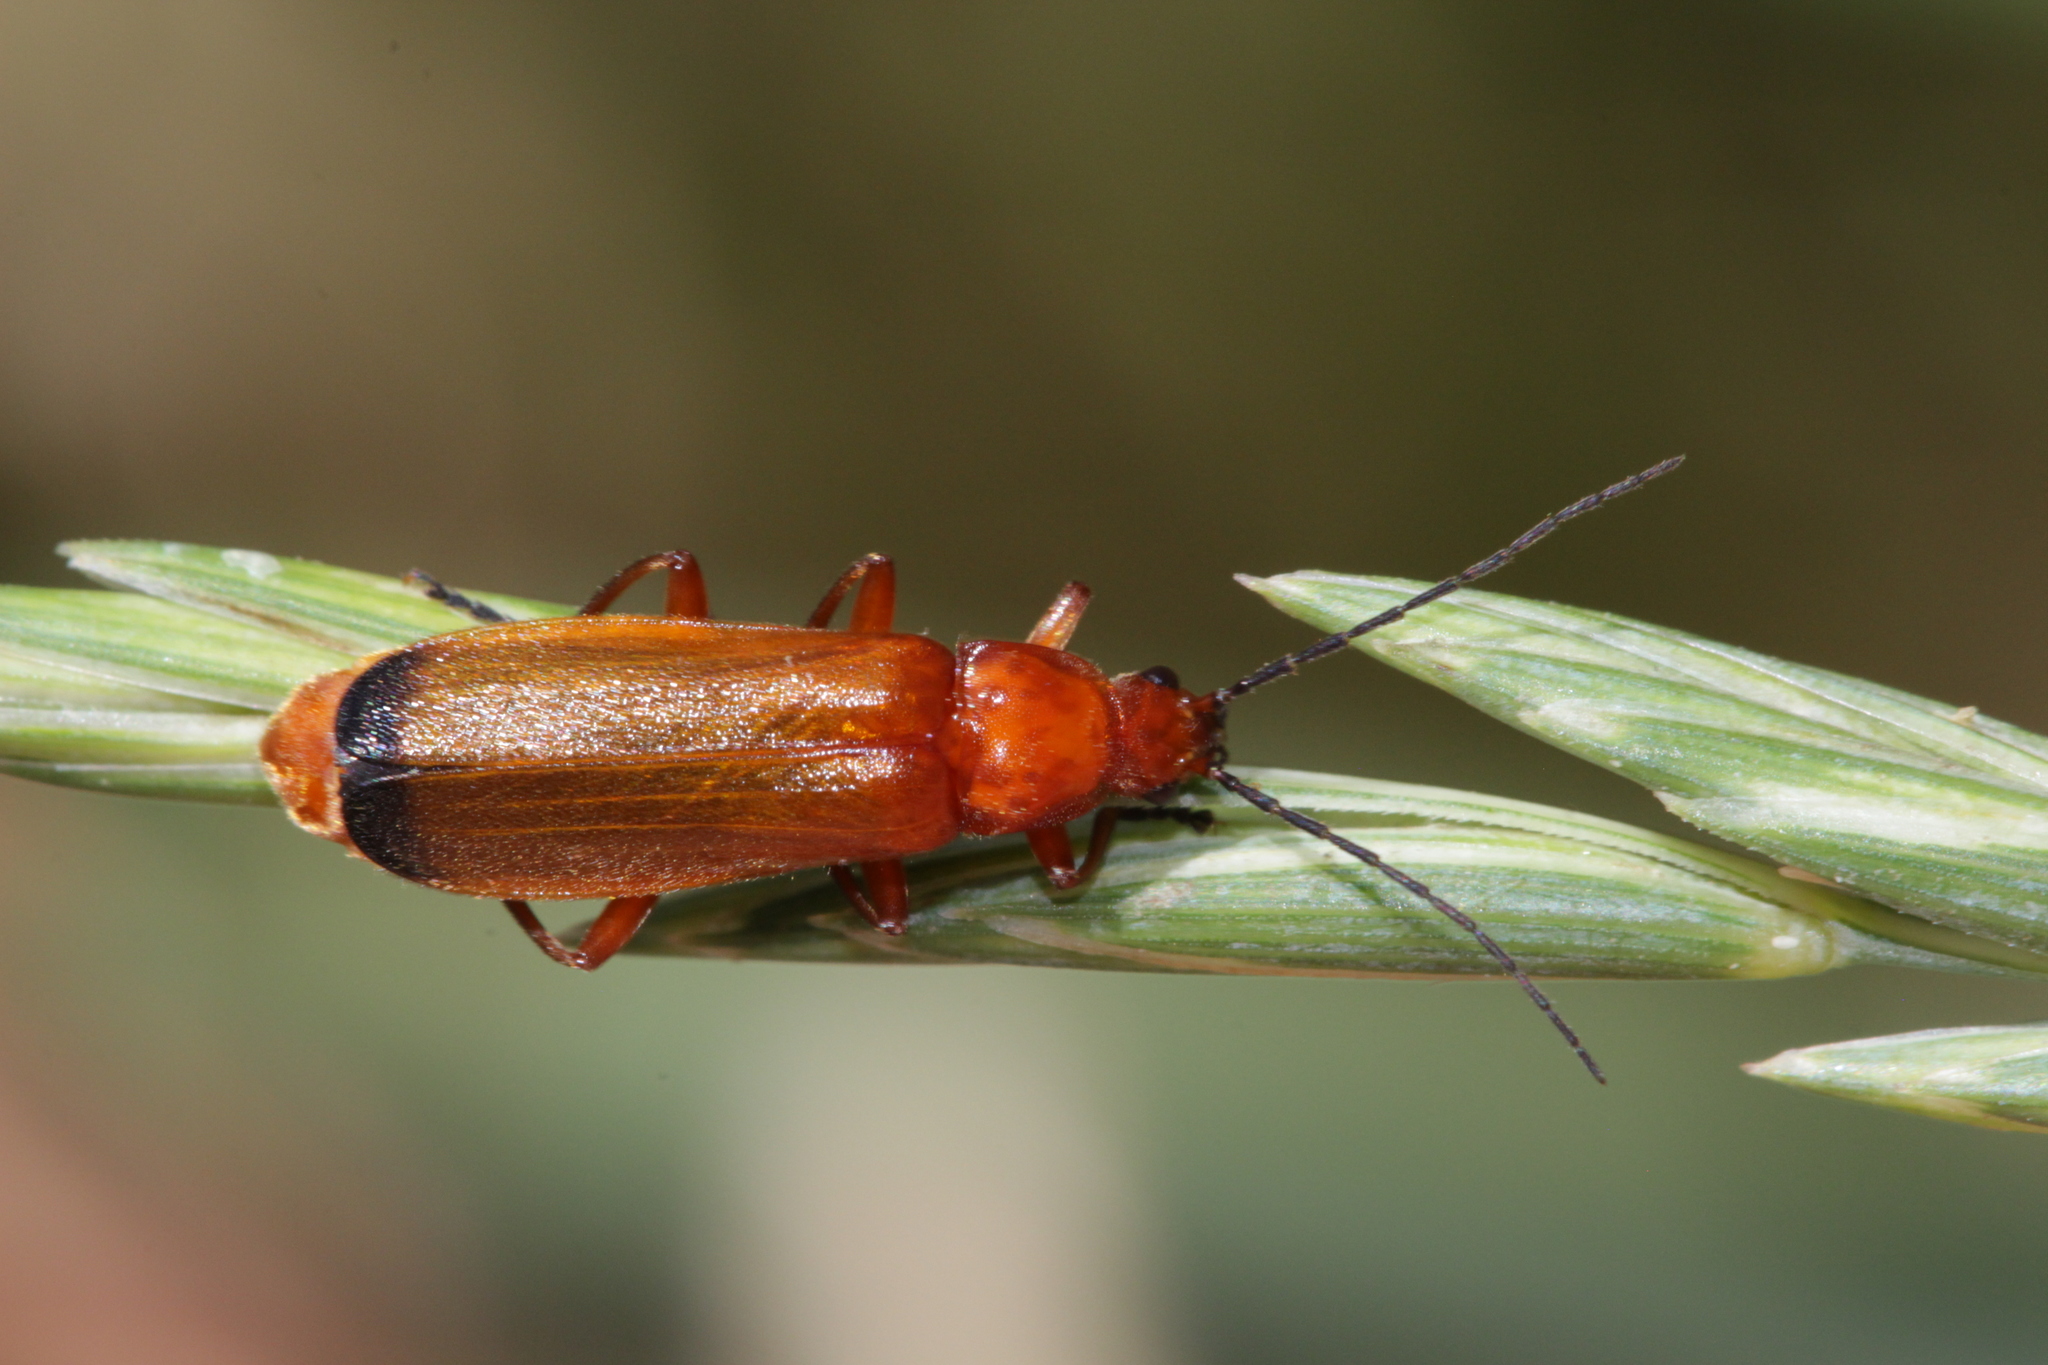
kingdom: Animalia
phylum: Arthropoda
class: Insecta
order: Coleoptera
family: Cantharidae
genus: Rhagonycha
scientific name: Rhagonycha fulva
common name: Common red soldier beetle
